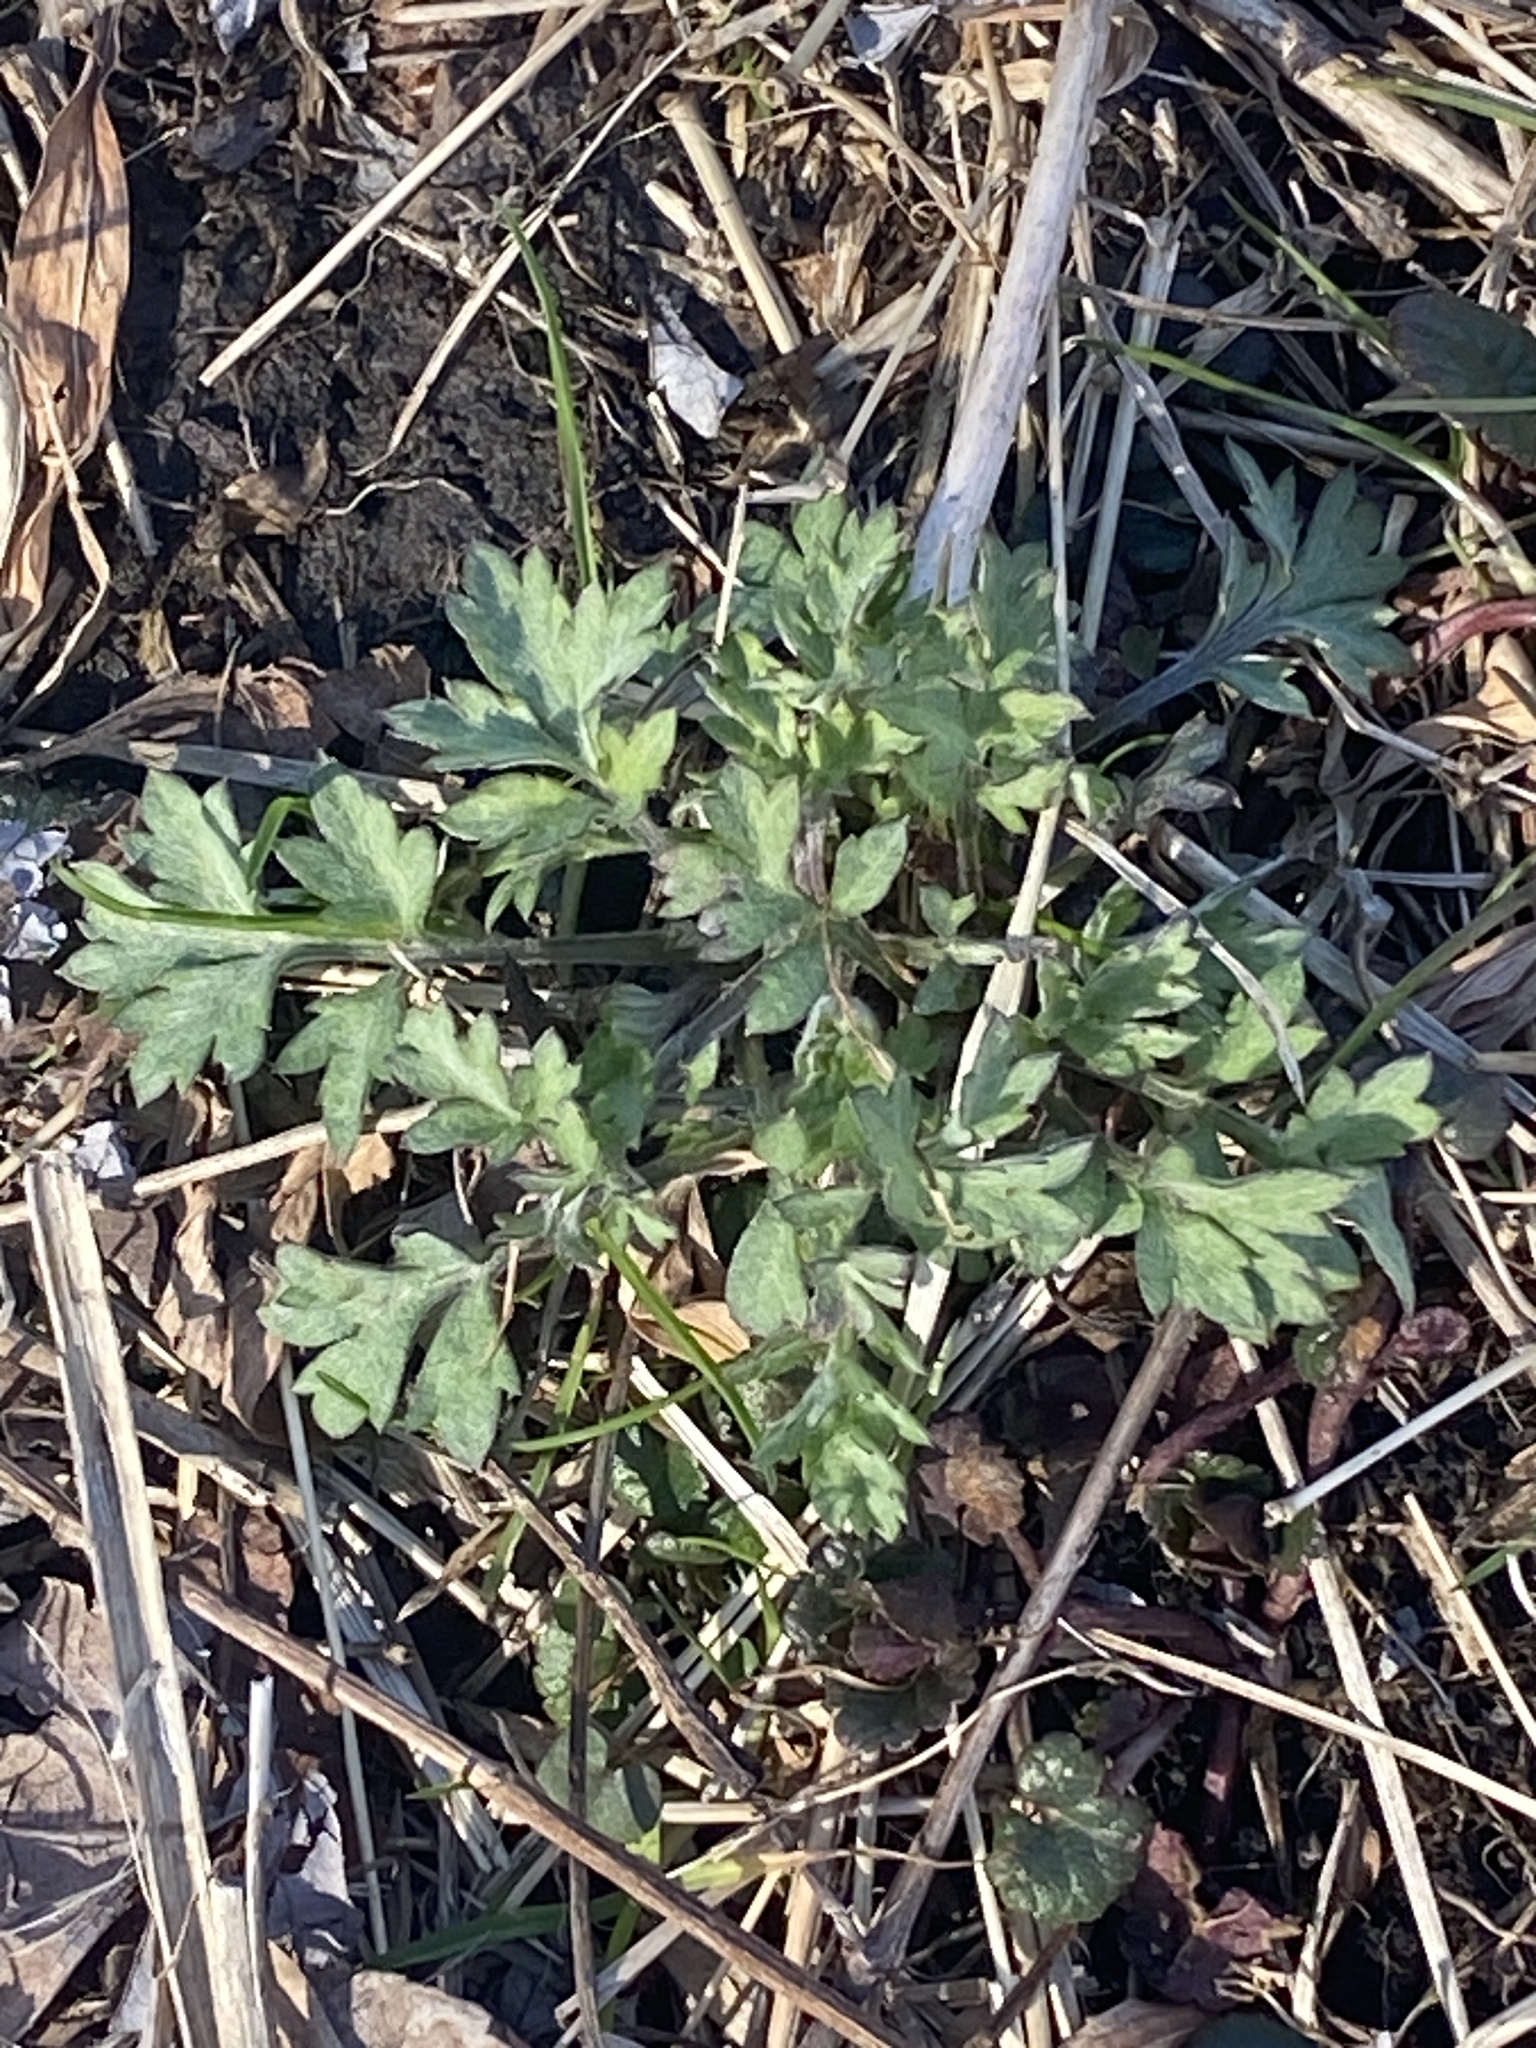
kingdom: Plantae
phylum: Tracheophyta
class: Magnoliopsida
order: Asterales
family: Asteraceae
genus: Artemisia
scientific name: Artemisia vulgaris
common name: Mugwort
